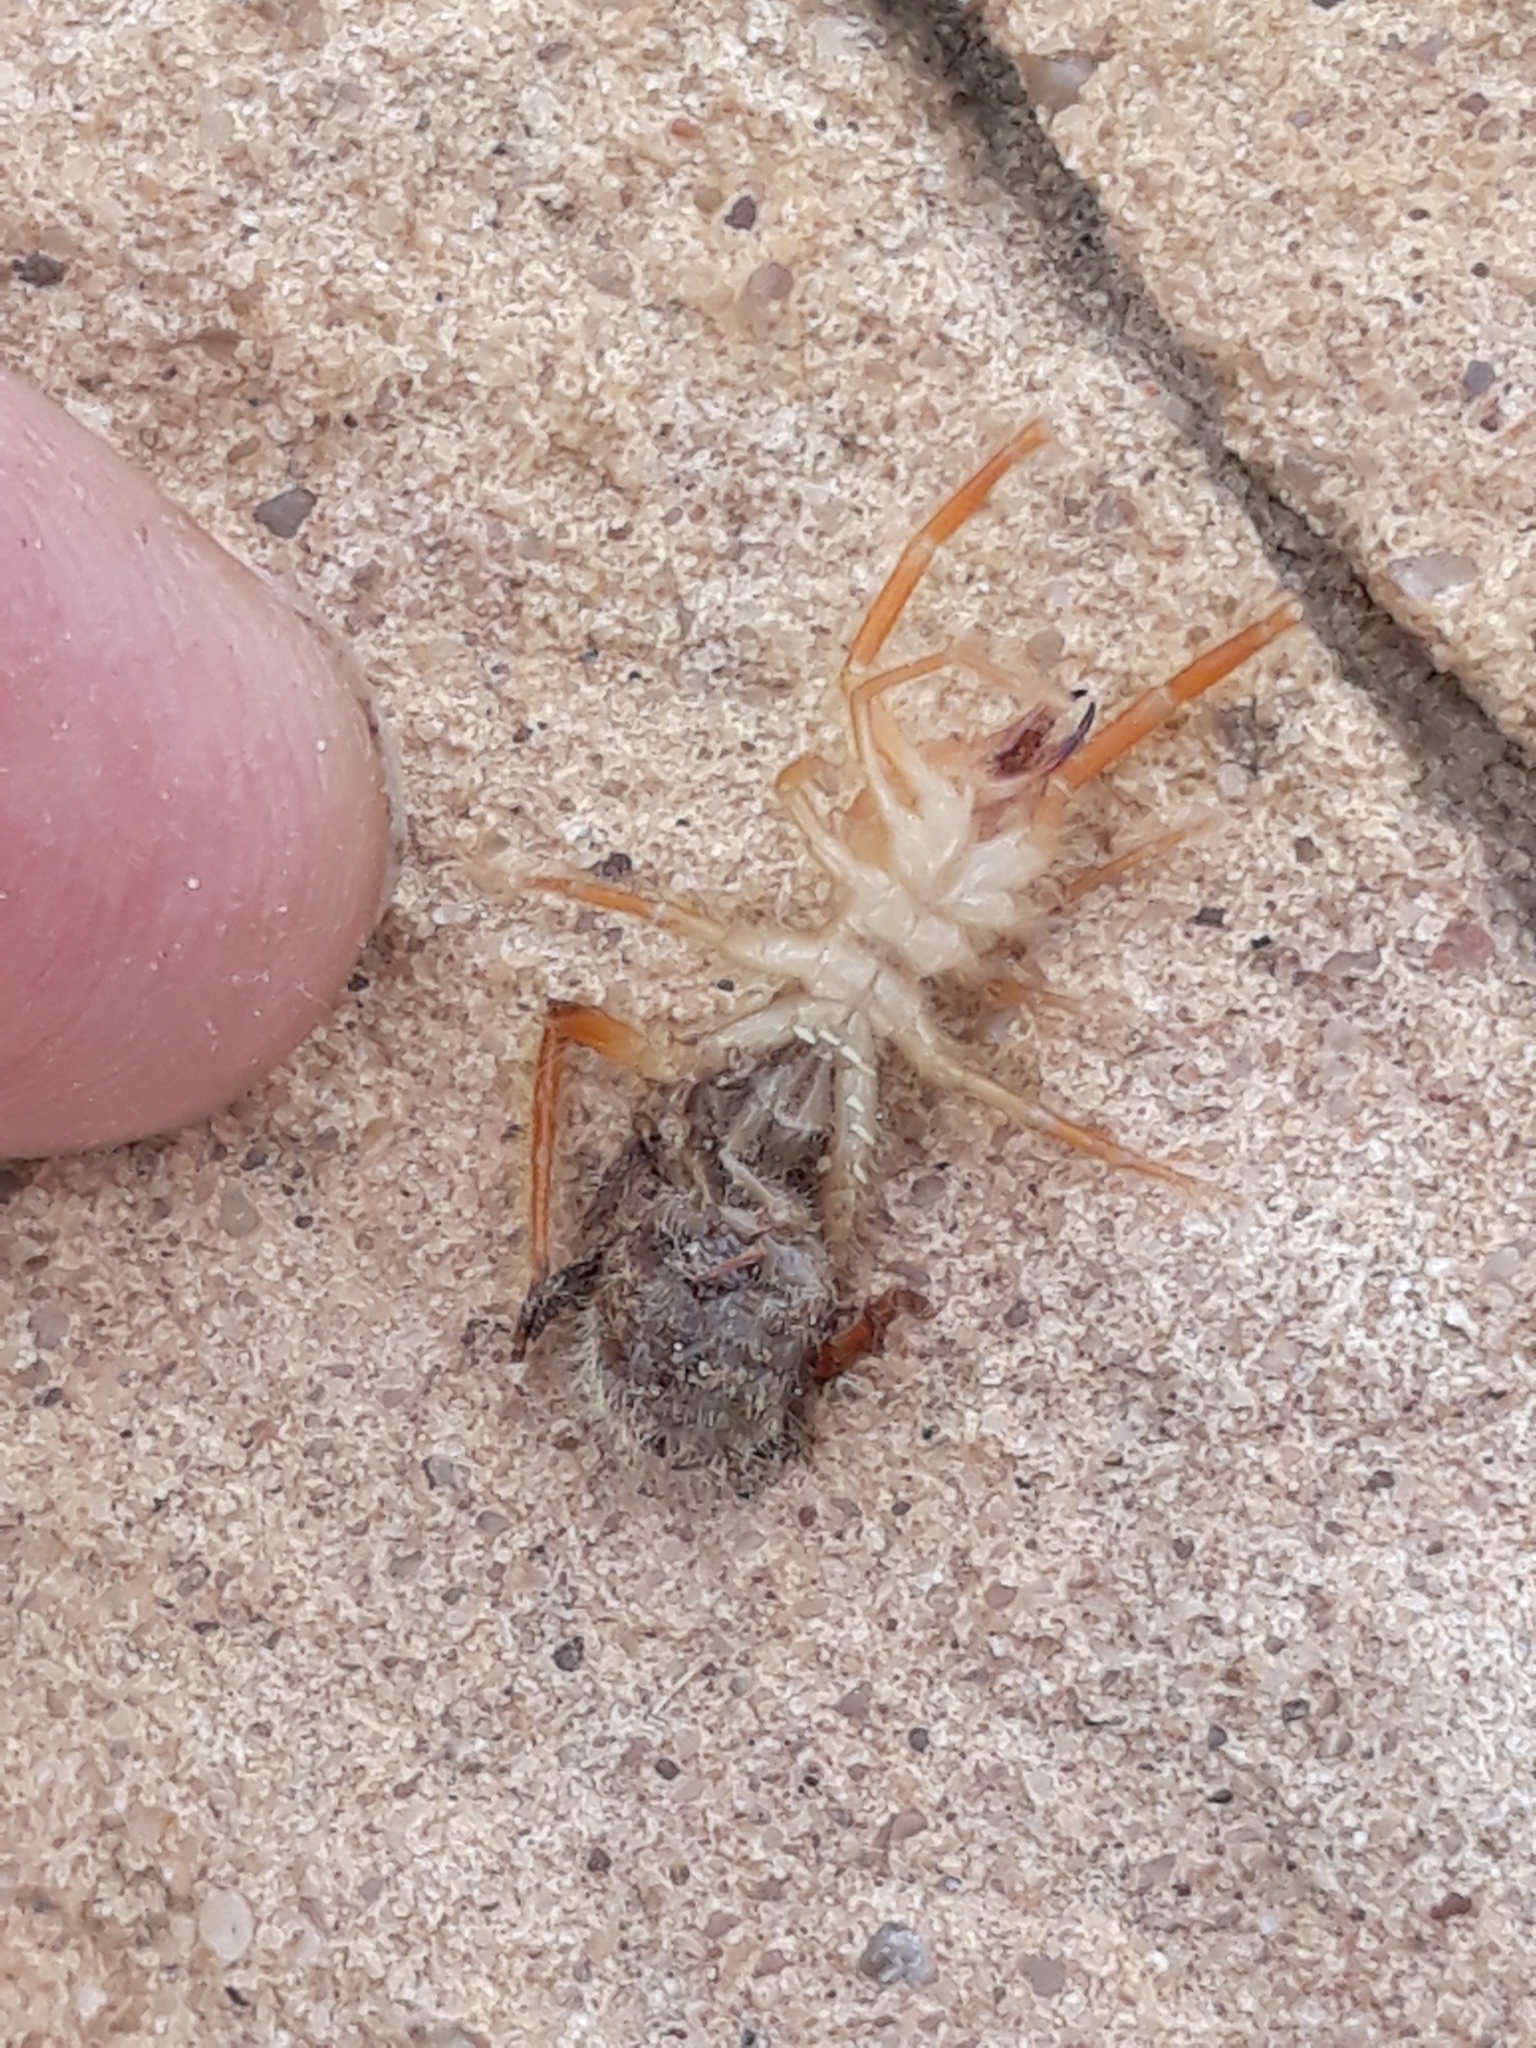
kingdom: Animalia
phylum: Arthropoda
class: Arachnida
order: Solifugae
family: Galeodidae
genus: Galeodes
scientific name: Galeodes arabs
